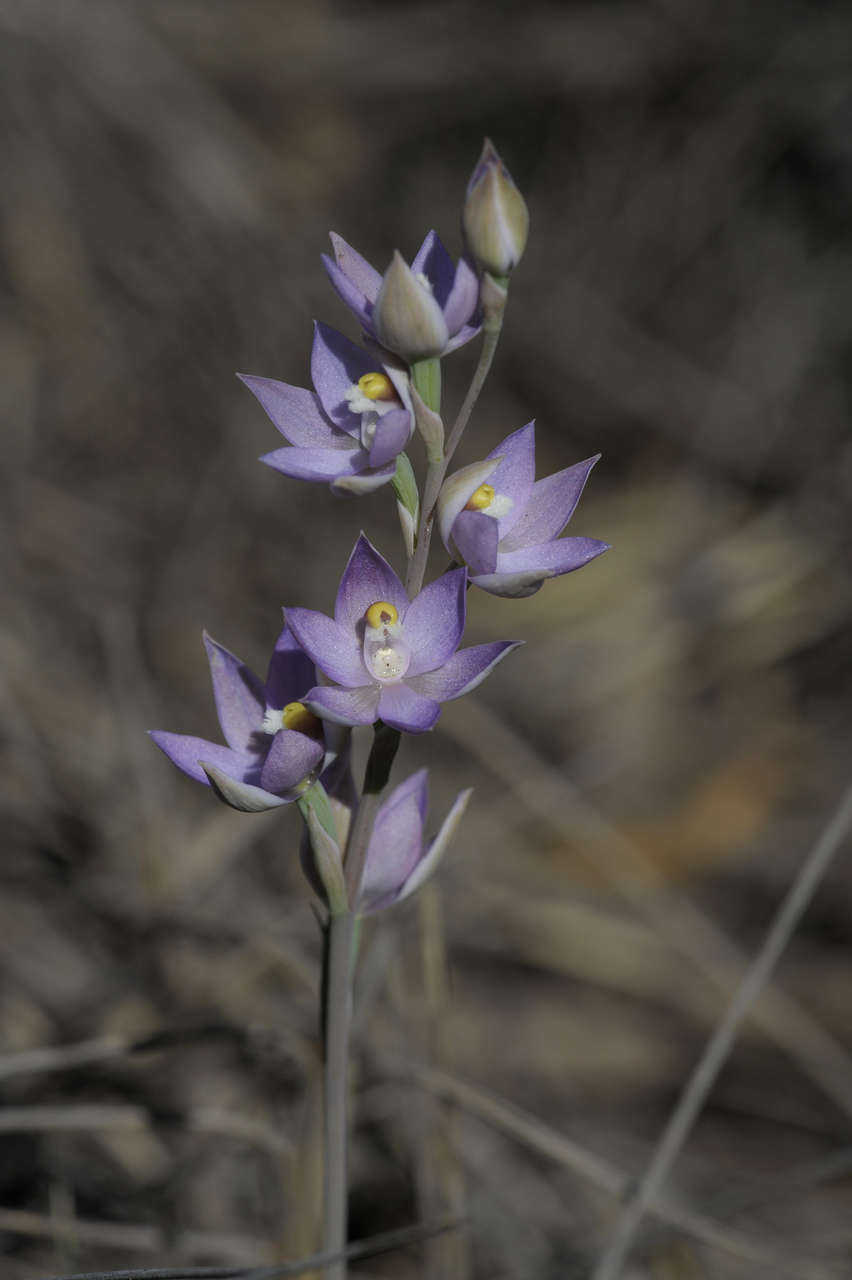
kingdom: Plantae
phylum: Tracheophyta
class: Liliopsida
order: Asparagales
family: Orchidaceae
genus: Thelymitra
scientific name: Thelymitra alcockiae
